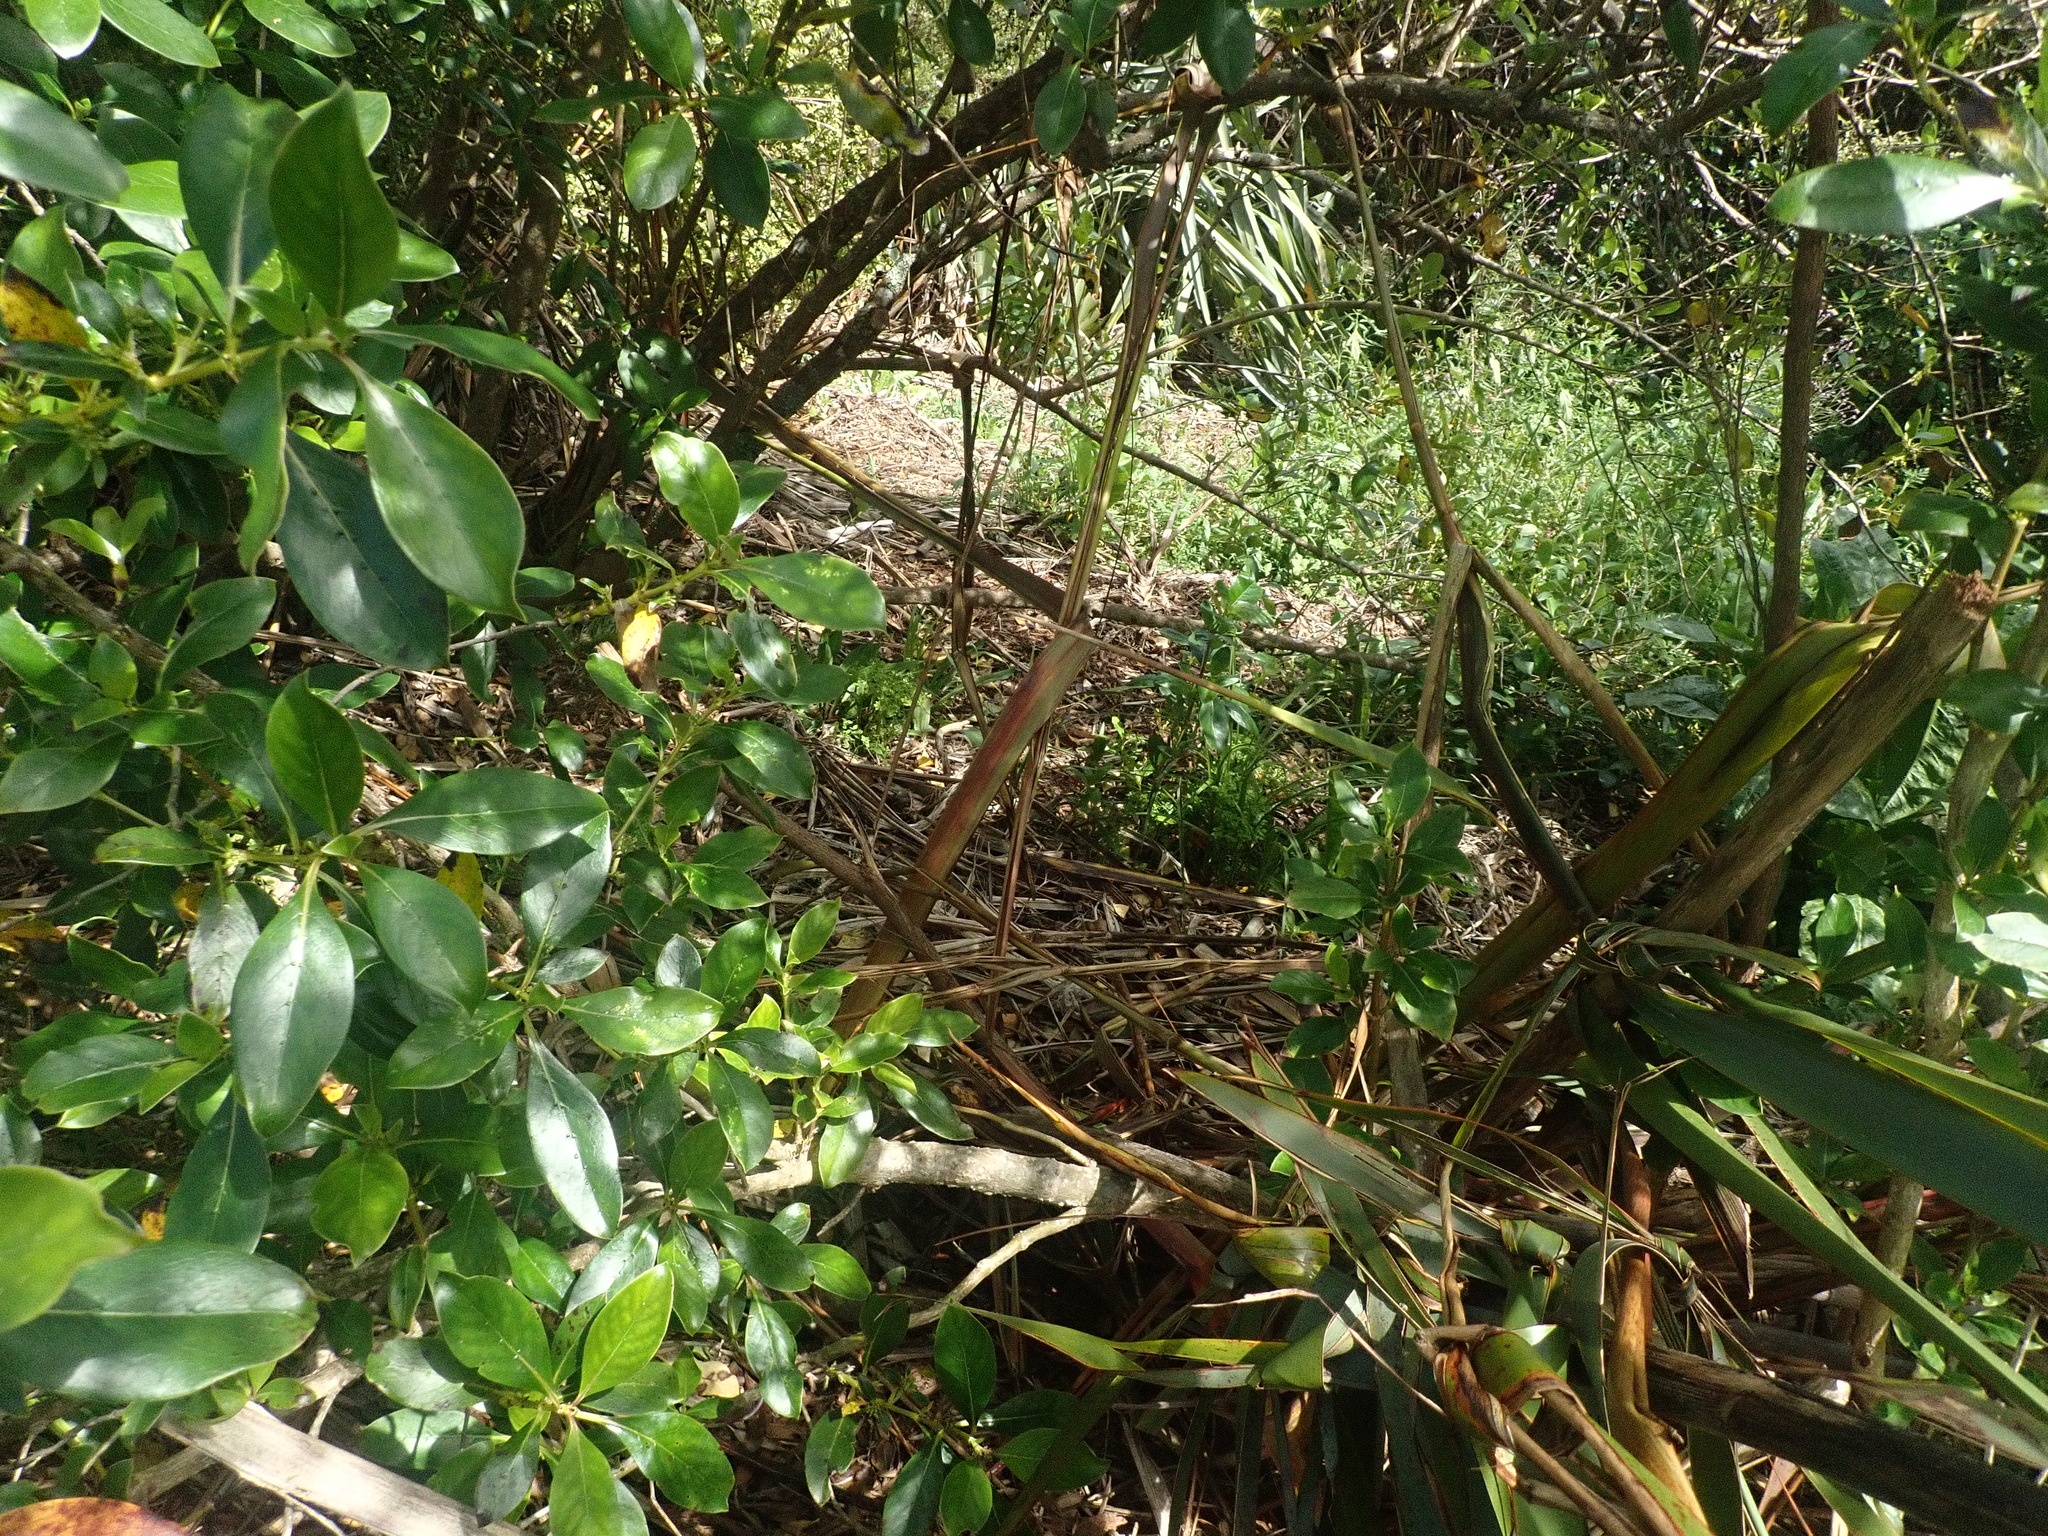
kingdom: Plantae
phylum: Tracheophyta
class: Magnoliopsida
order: Gentianales
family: Rubiaceae
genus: Coprosma
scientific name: Coprosma robusta
